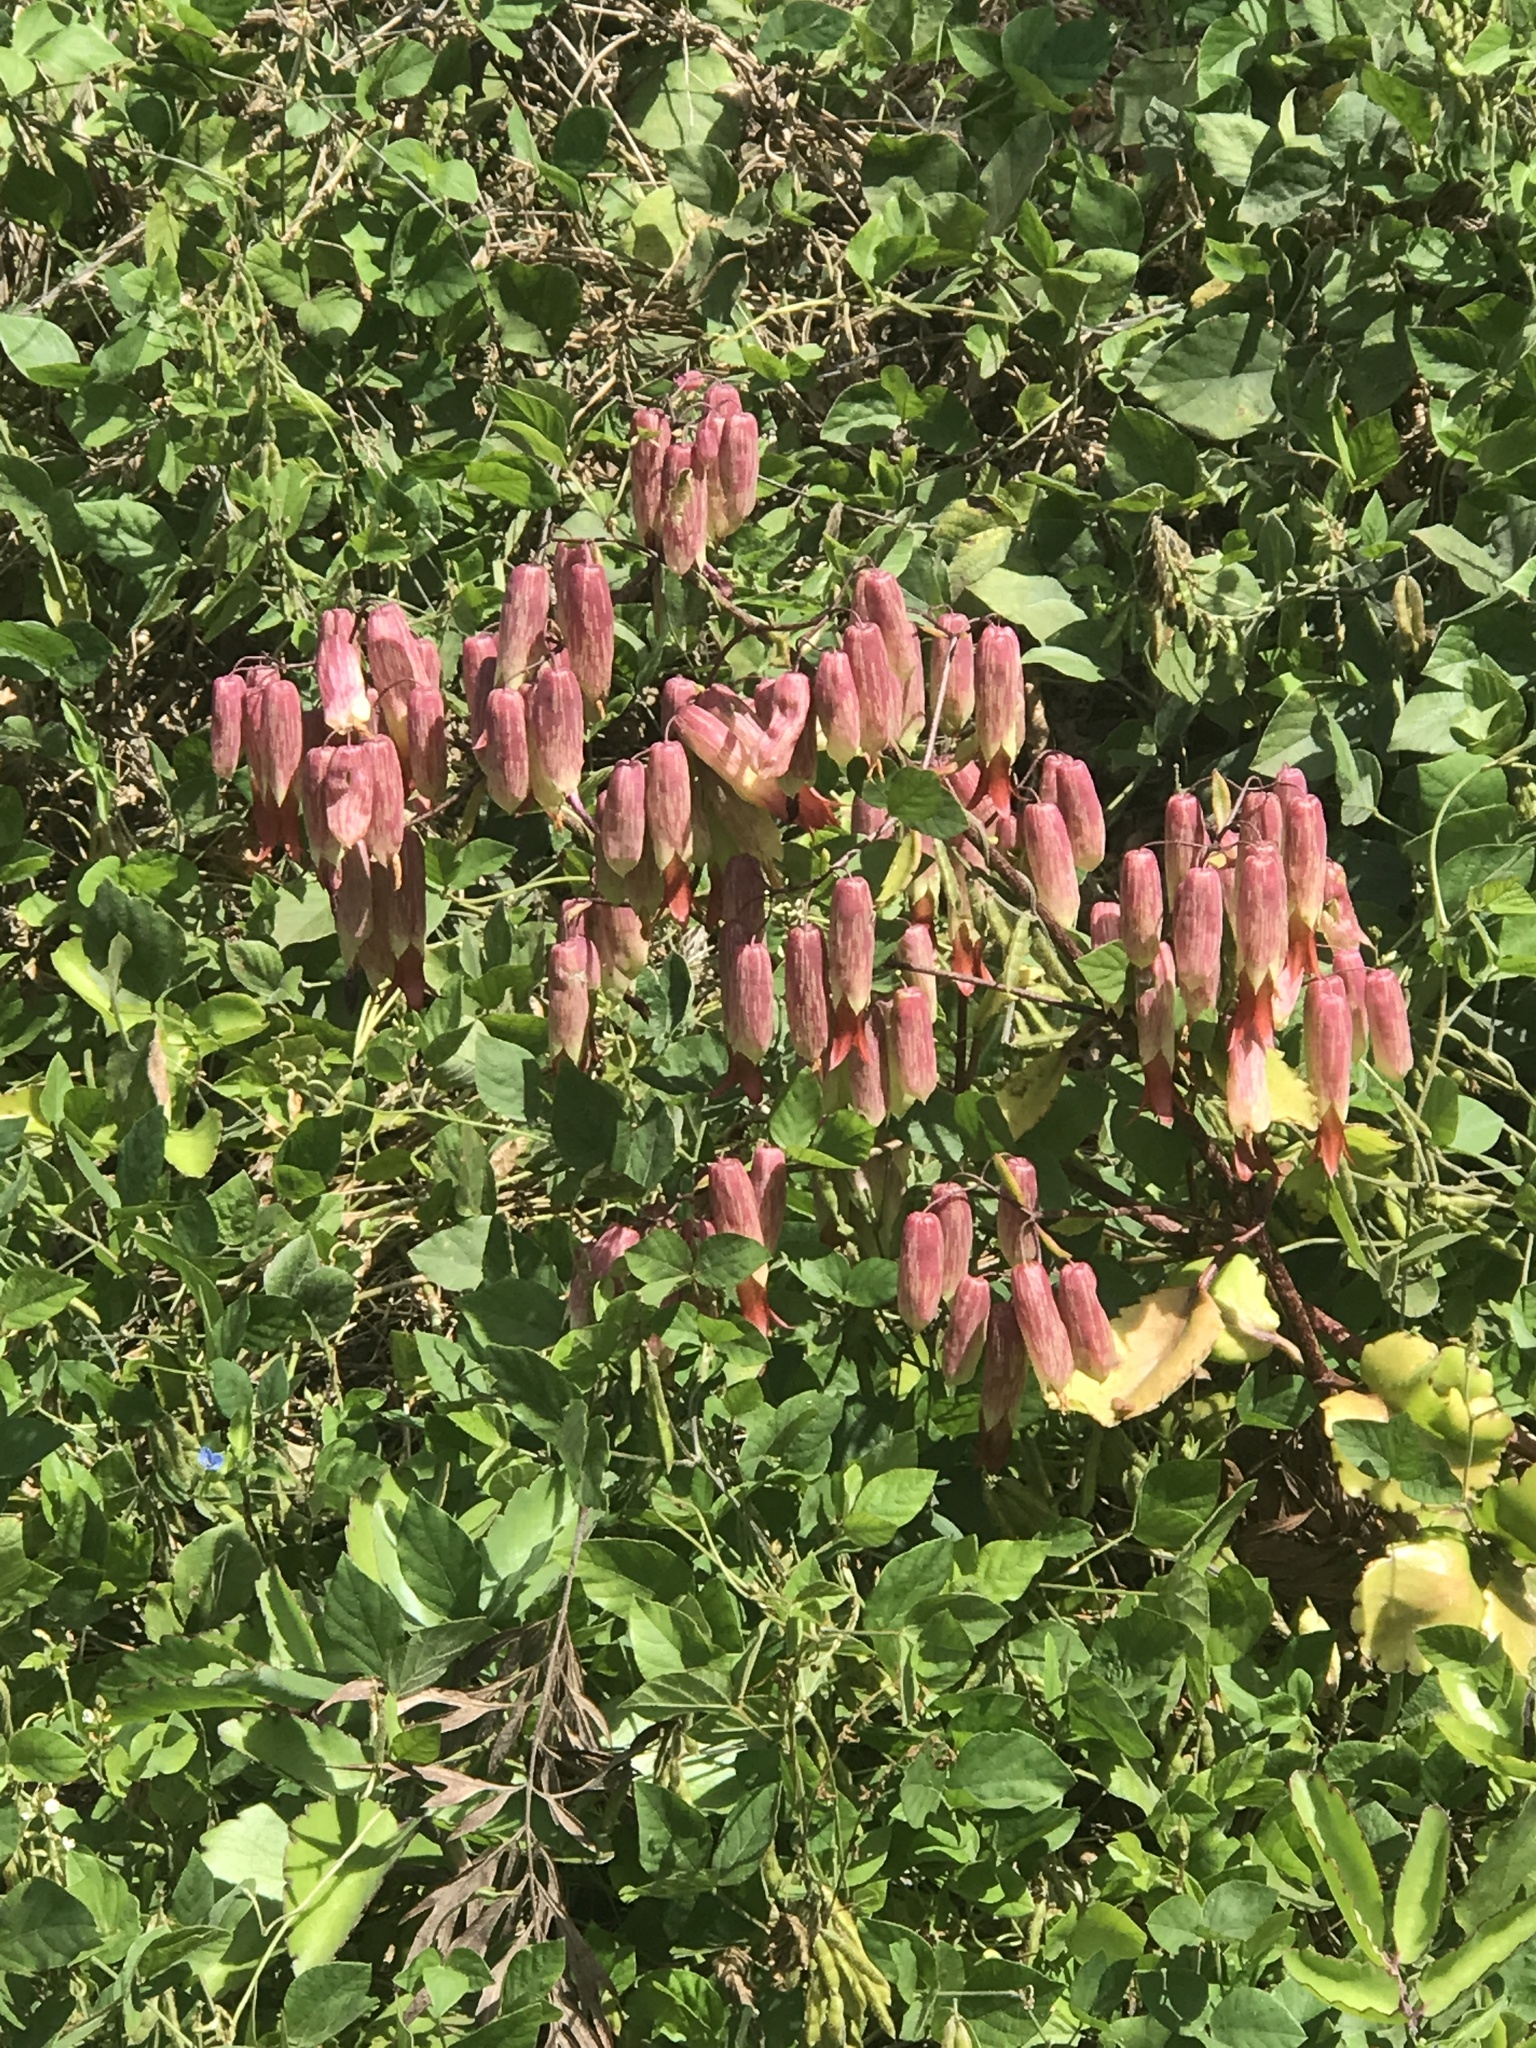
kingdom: Plantae
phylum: Tracheophyta
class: Magnoliopsida
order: Saxifragales
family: Crassulaceae
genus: Kalanchoe
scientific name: Kalanchoe pinnata
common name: Cathedral bells
